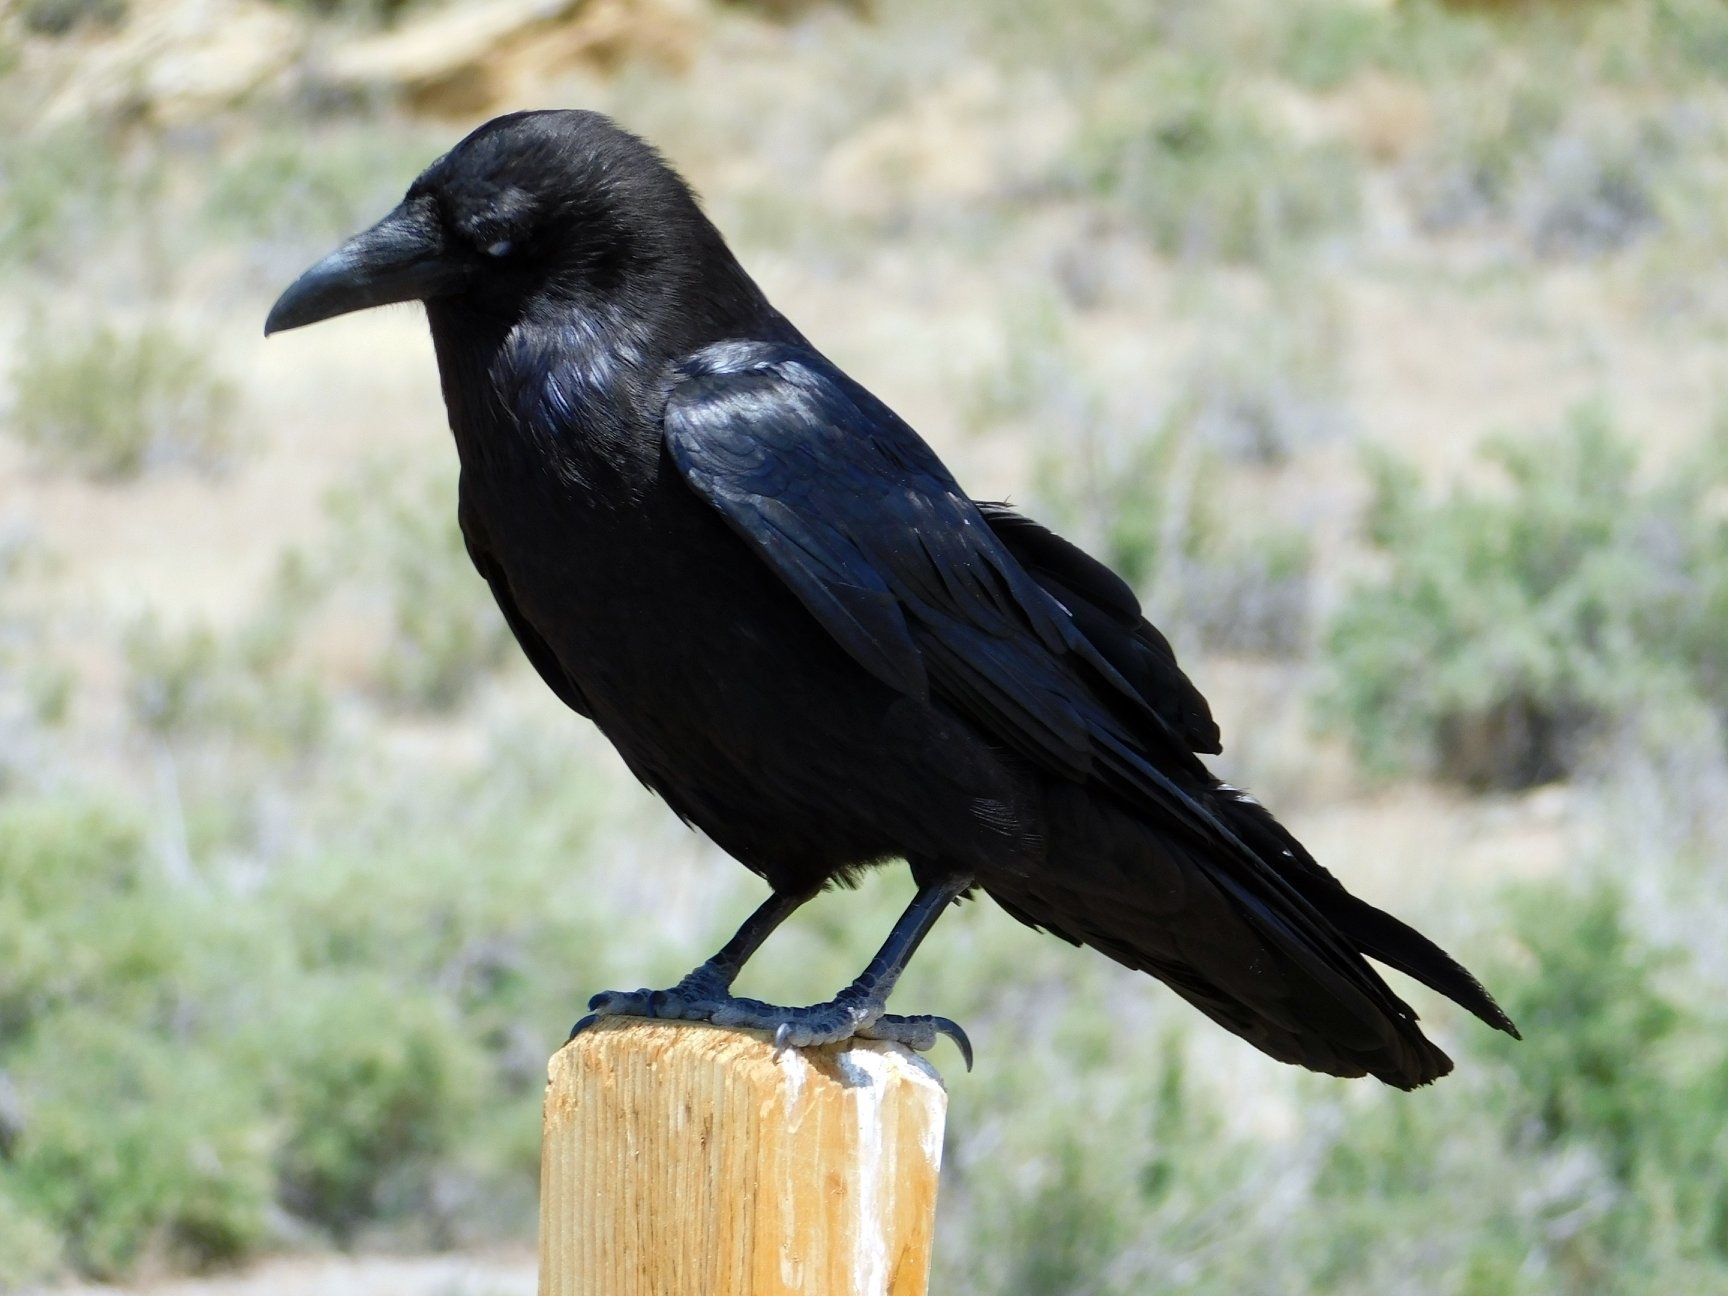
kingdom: Animalia
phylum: Chordata
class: Aves
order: Passeriformes
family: Corvidae
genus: Corvus
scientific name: Corvus corax
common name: Common raven
